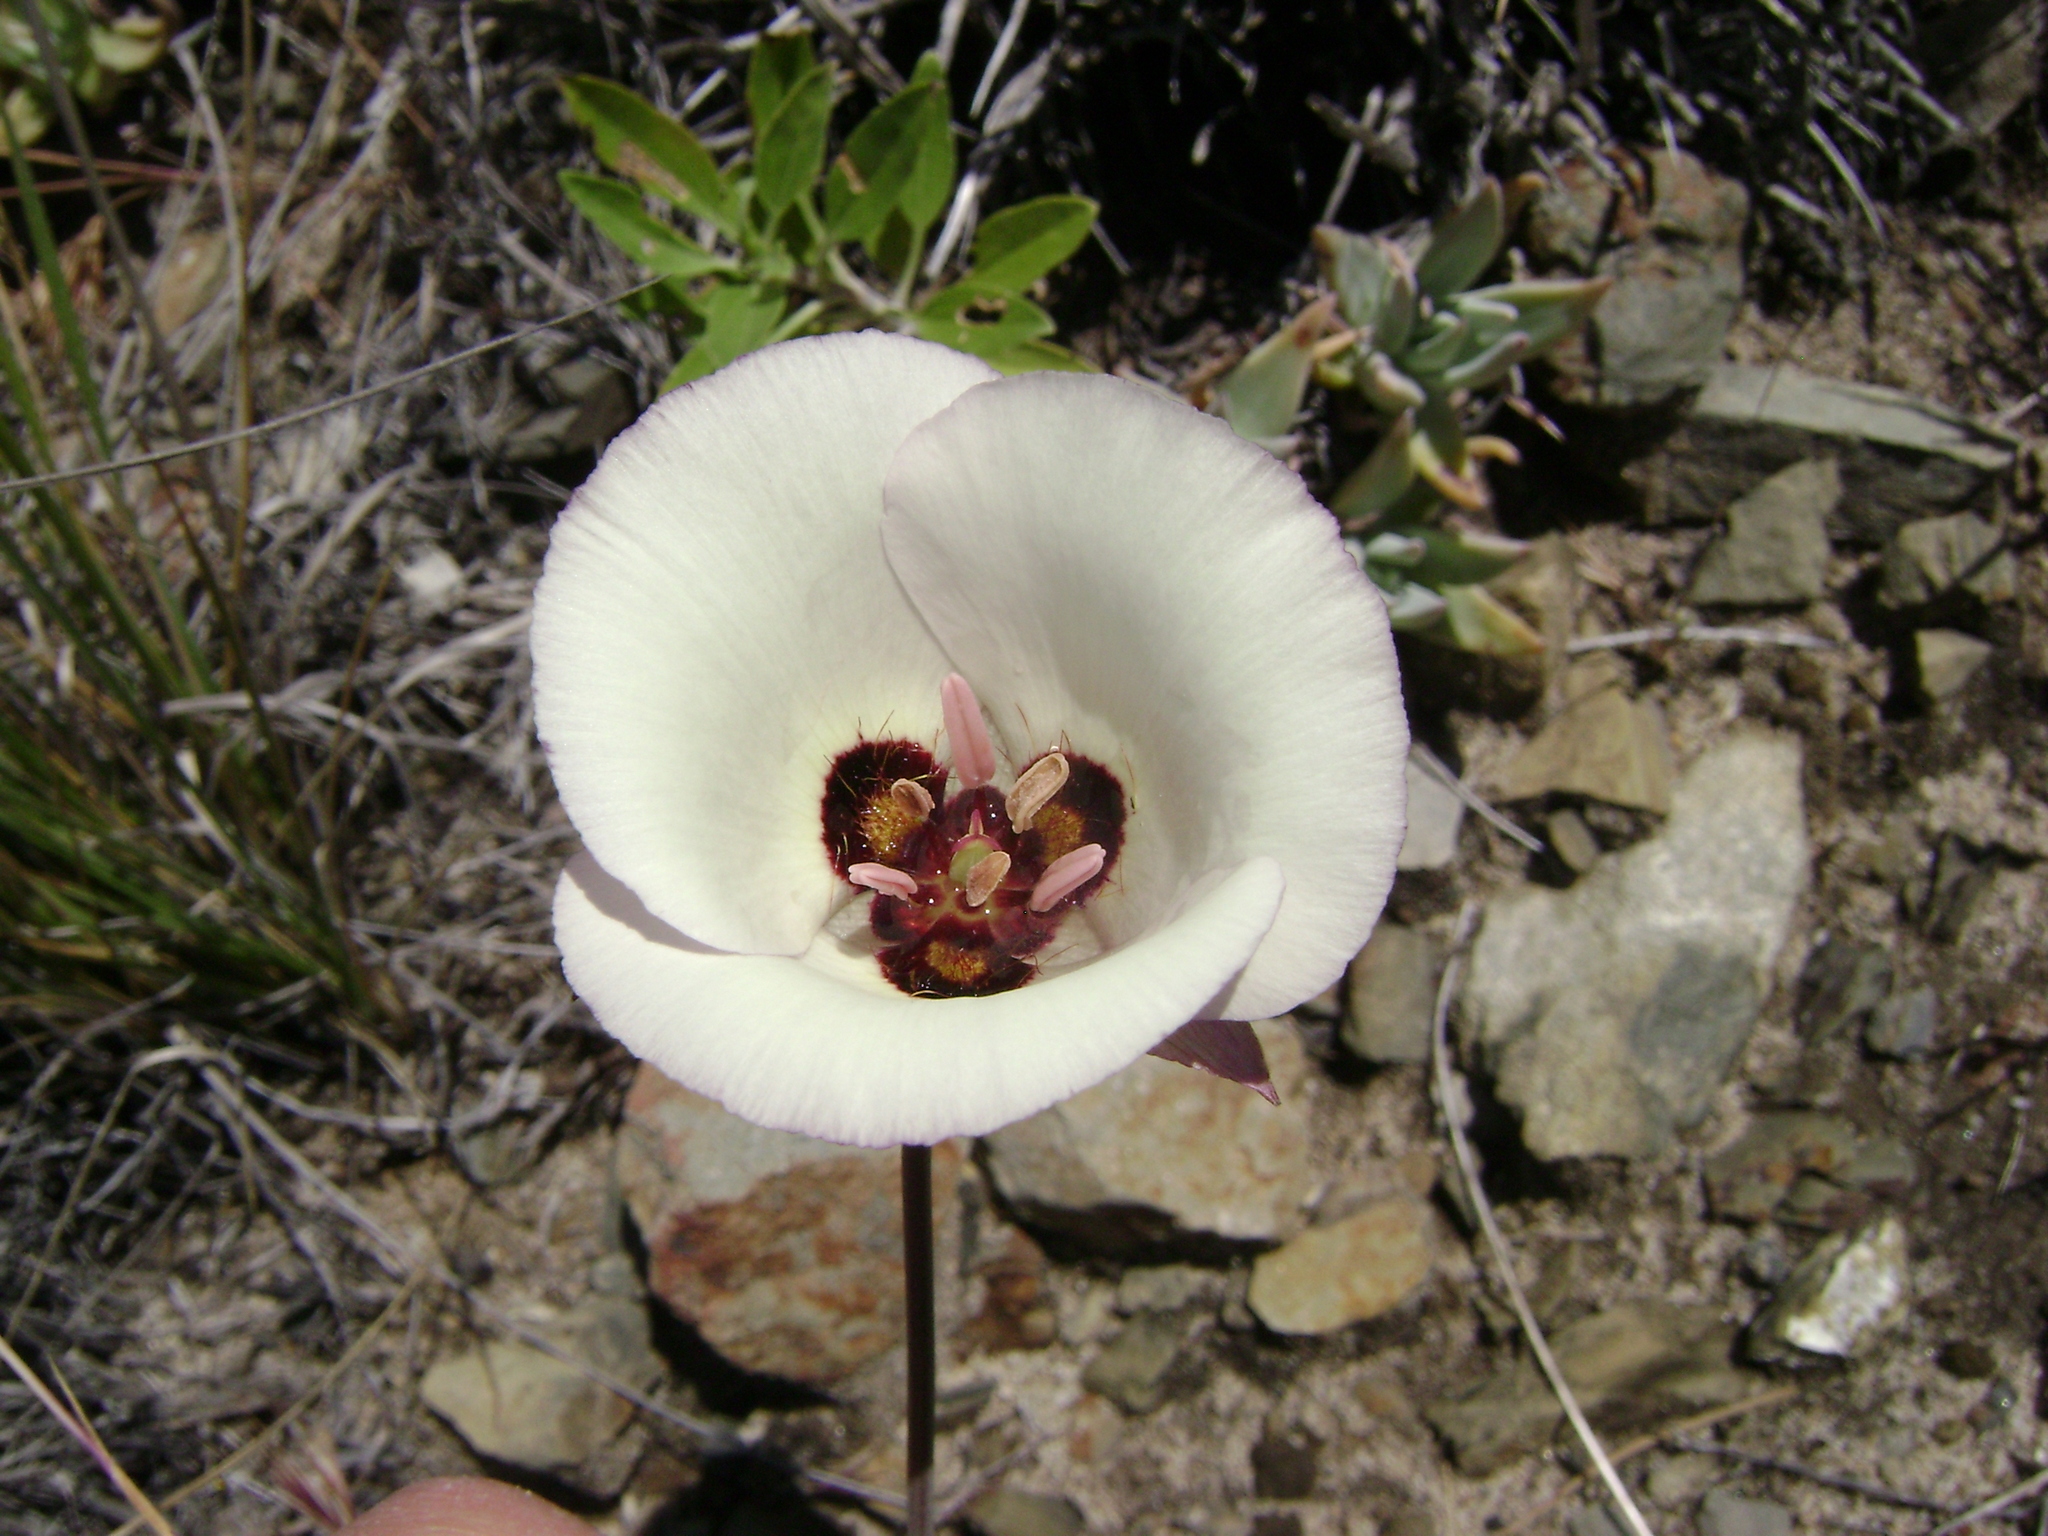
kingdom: Plantae
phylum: Tracheophyta
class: Liliopsida
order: Liliales
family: Liliaceae
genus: Calochortus
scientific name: Calochortus catalinae
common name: Catalina mariposa-lily
